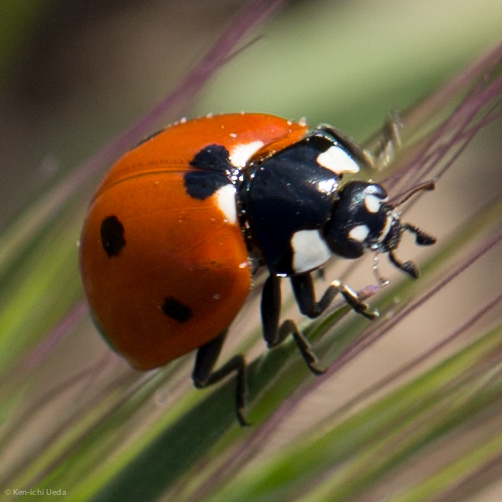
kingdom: Animalia
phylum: Arthropoda
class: Insecta
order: Coleoptera
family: Coccinellidae
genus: Coccinella
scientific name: Coccinella septempunctata
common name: Sevenspotted lady beetle
